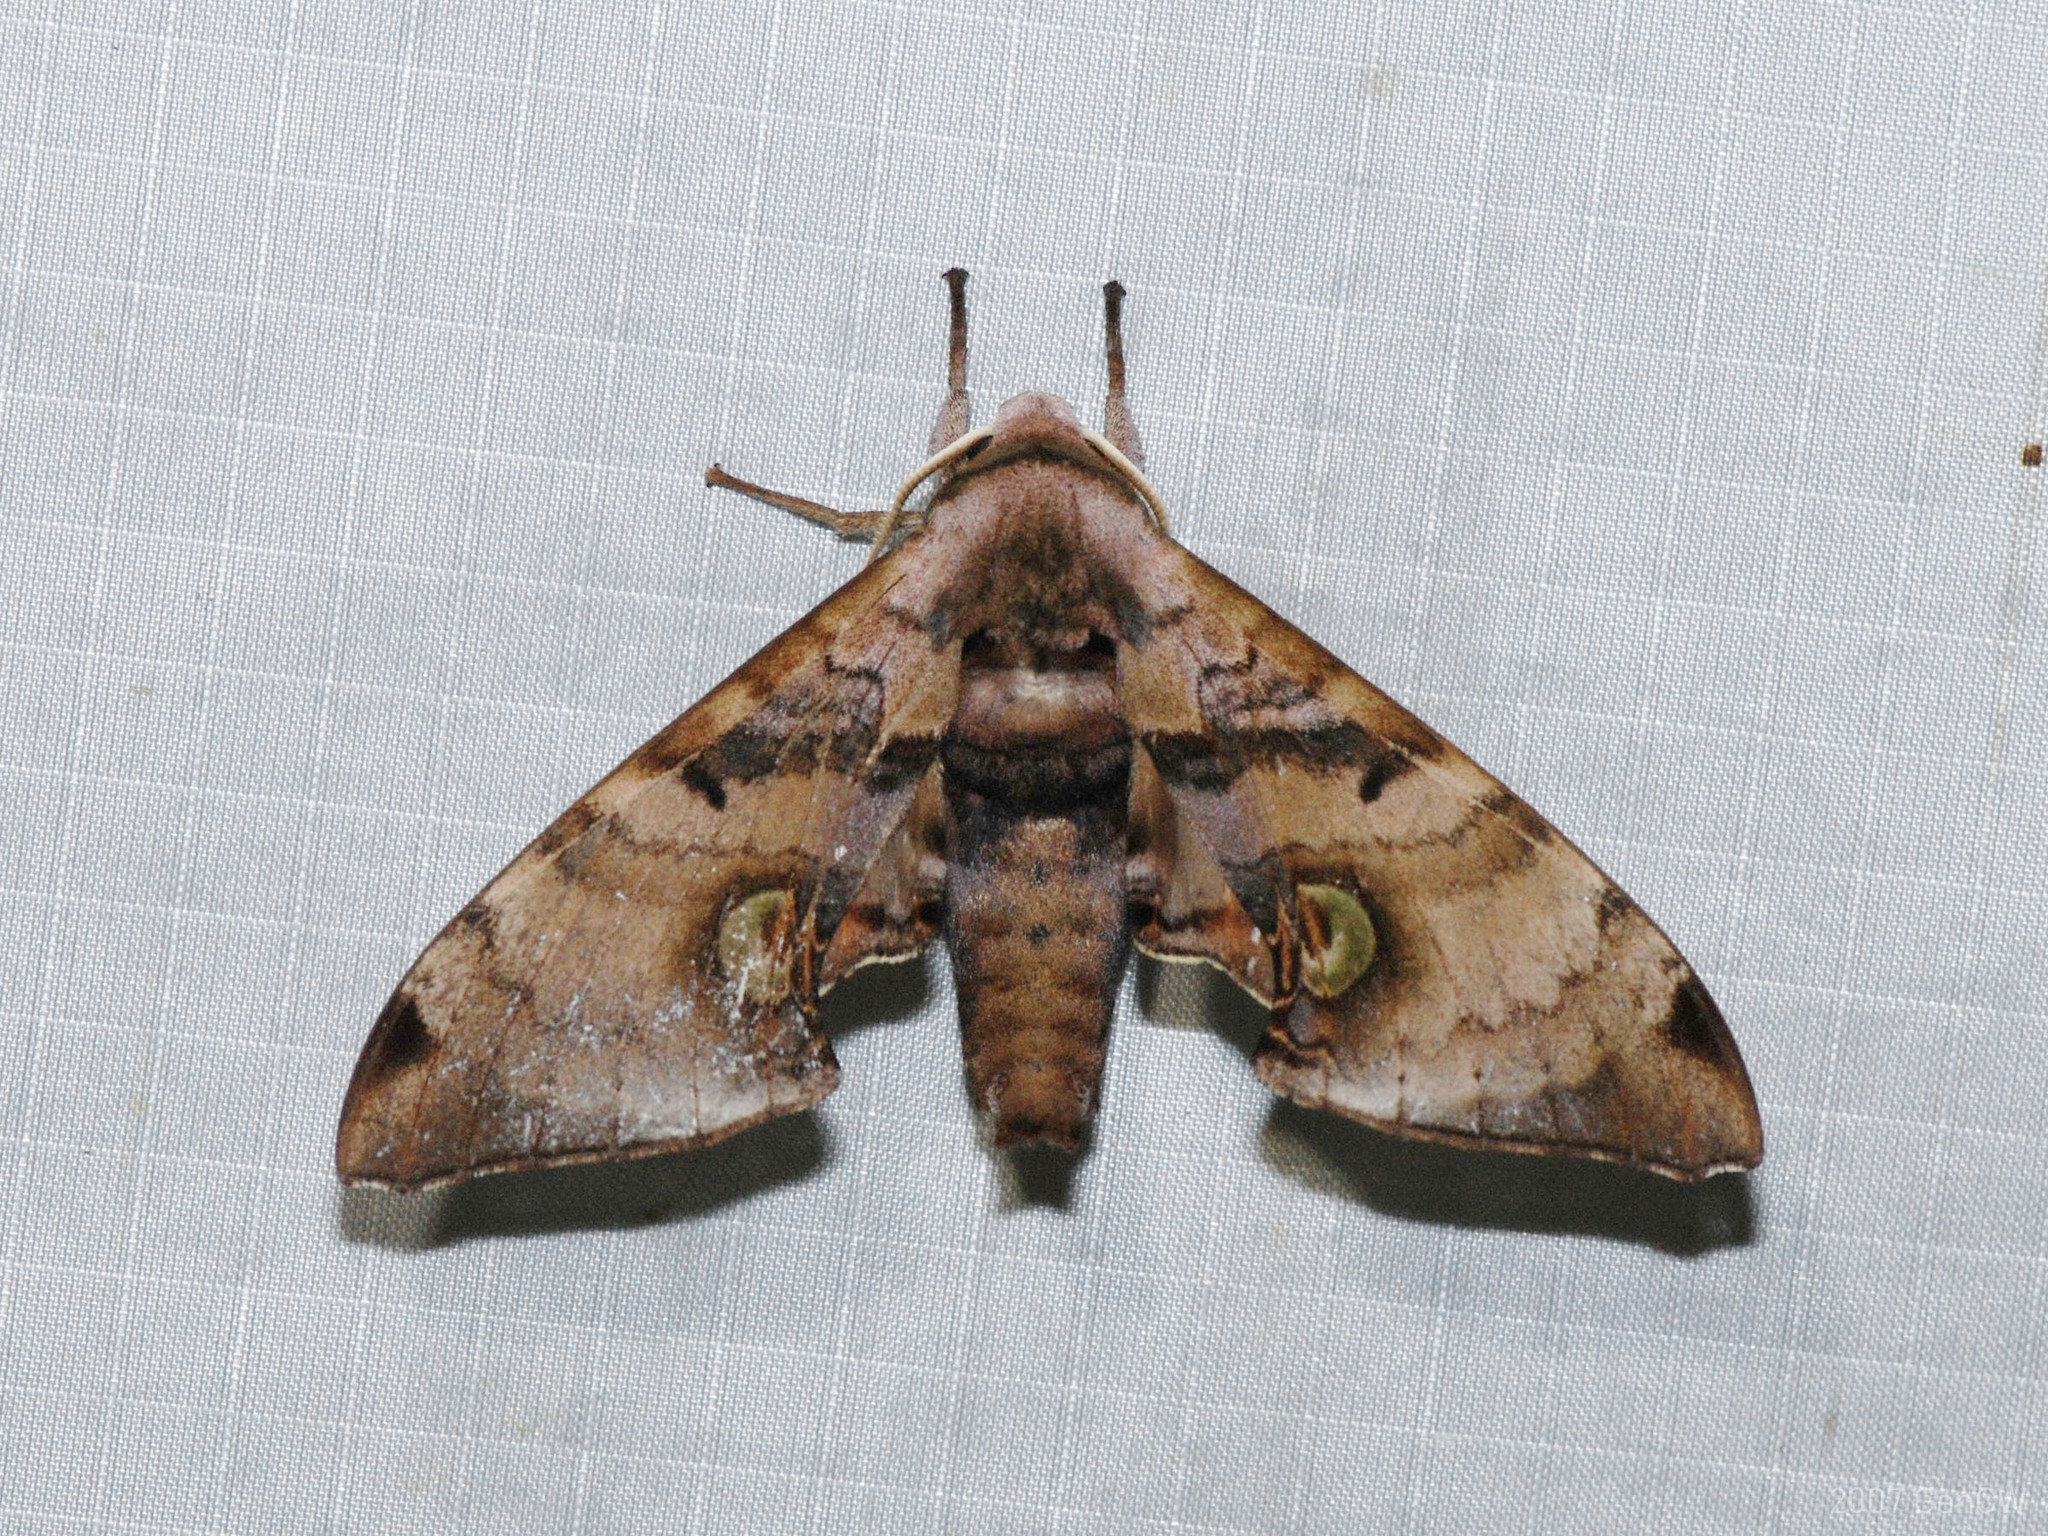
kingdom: Animalia
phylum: Arthropoda
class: Insecta
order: Lepidoptera
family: Sphingidae
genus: Daphnusa
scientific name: Daphnusa ocellaris
